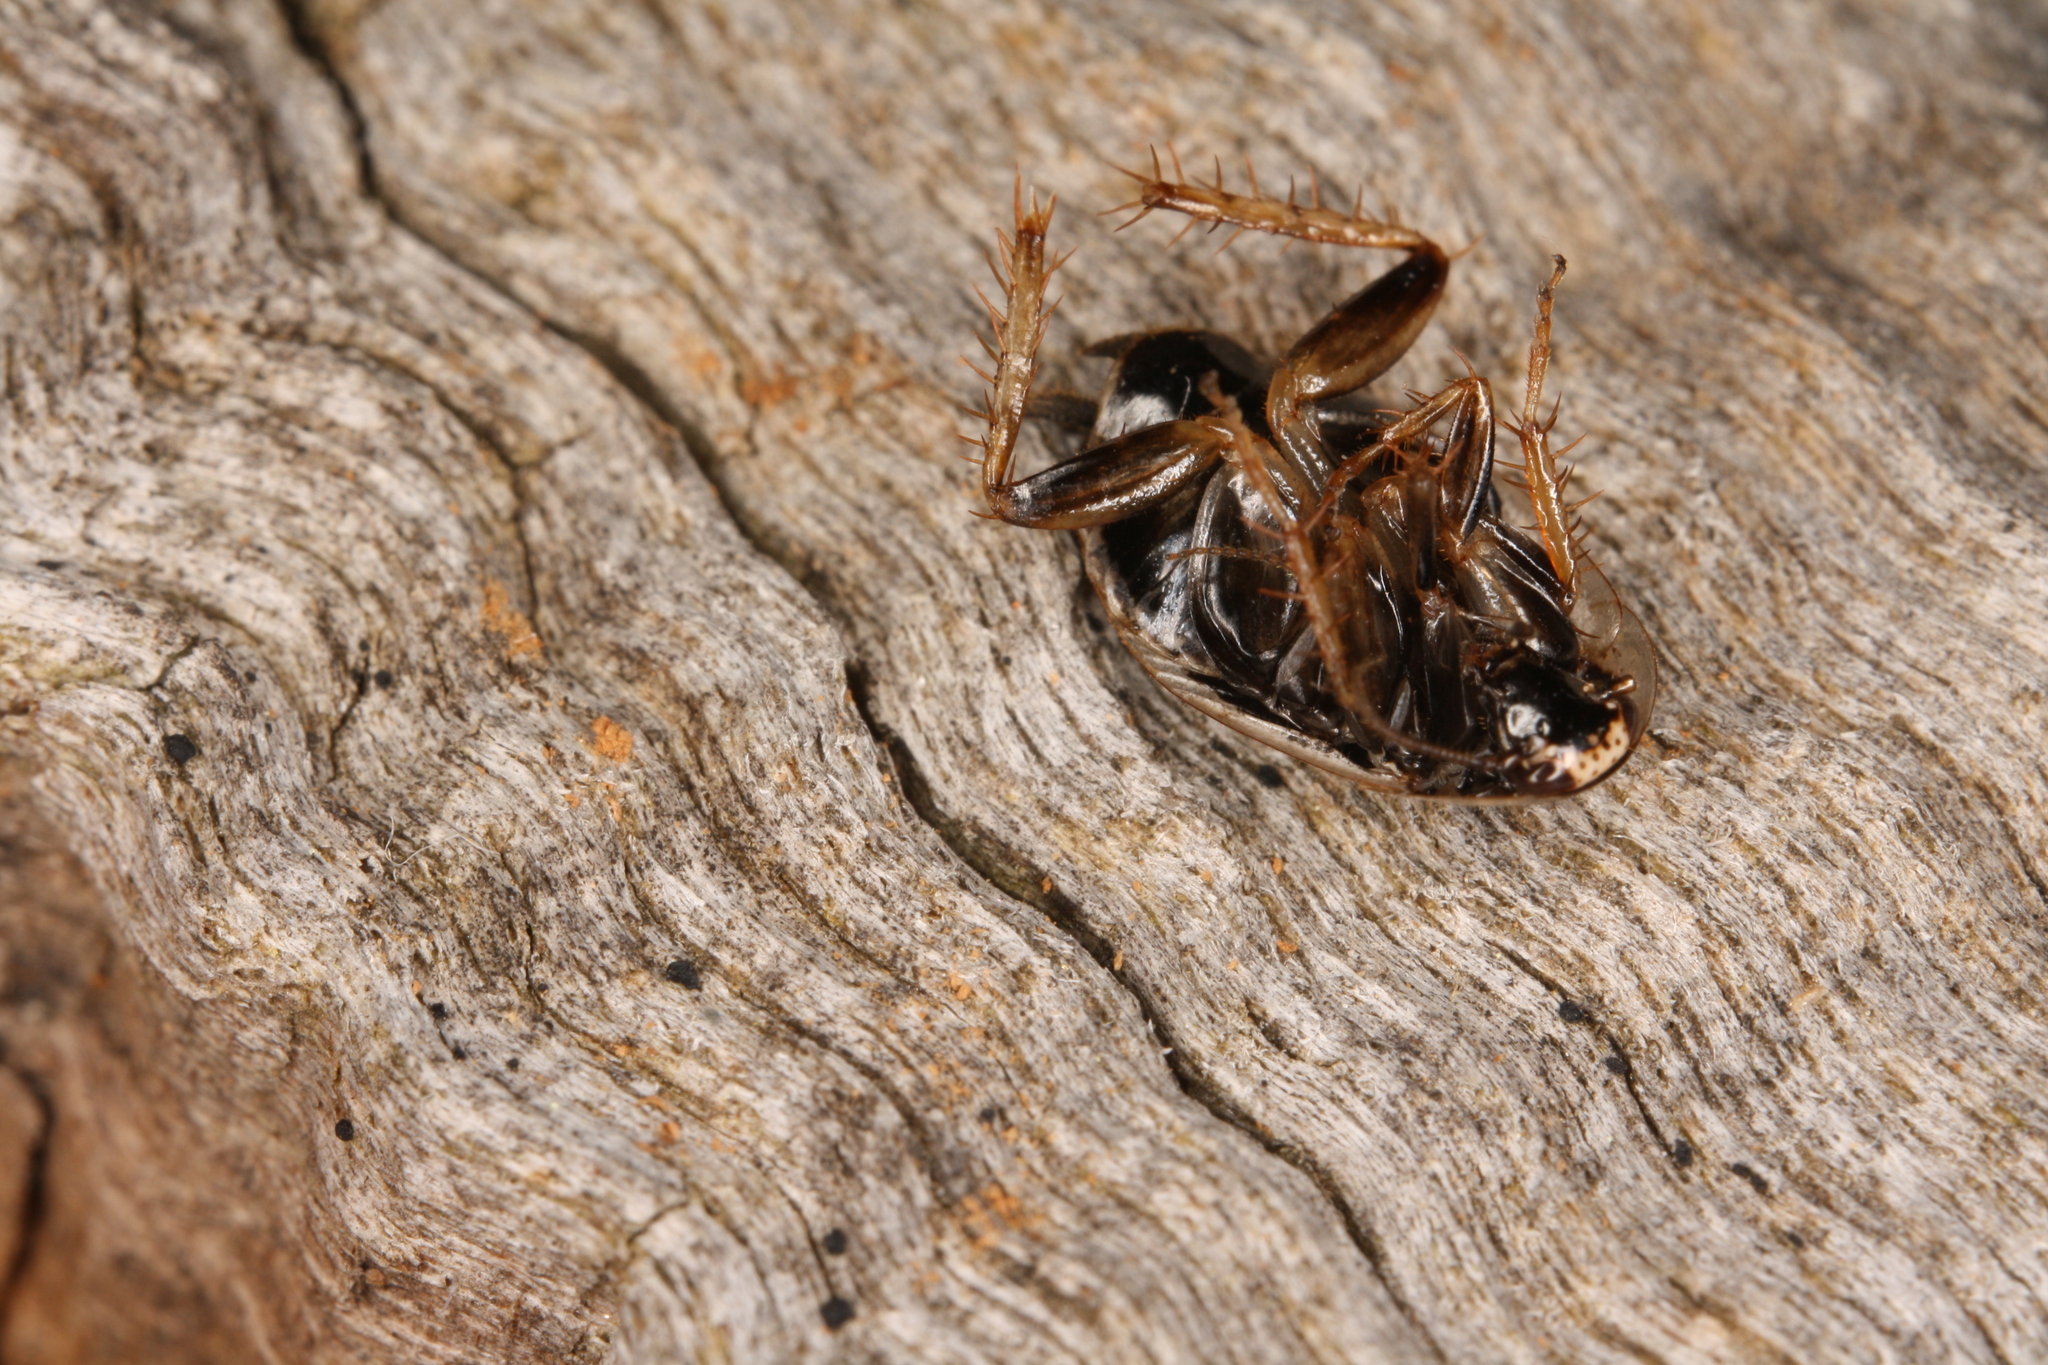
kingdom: Animalia
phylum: Arthropoda
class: Insecta
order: Blattodea
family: Ectobiidae
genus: Phyllodromica
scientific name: Phyllodromica marginata
